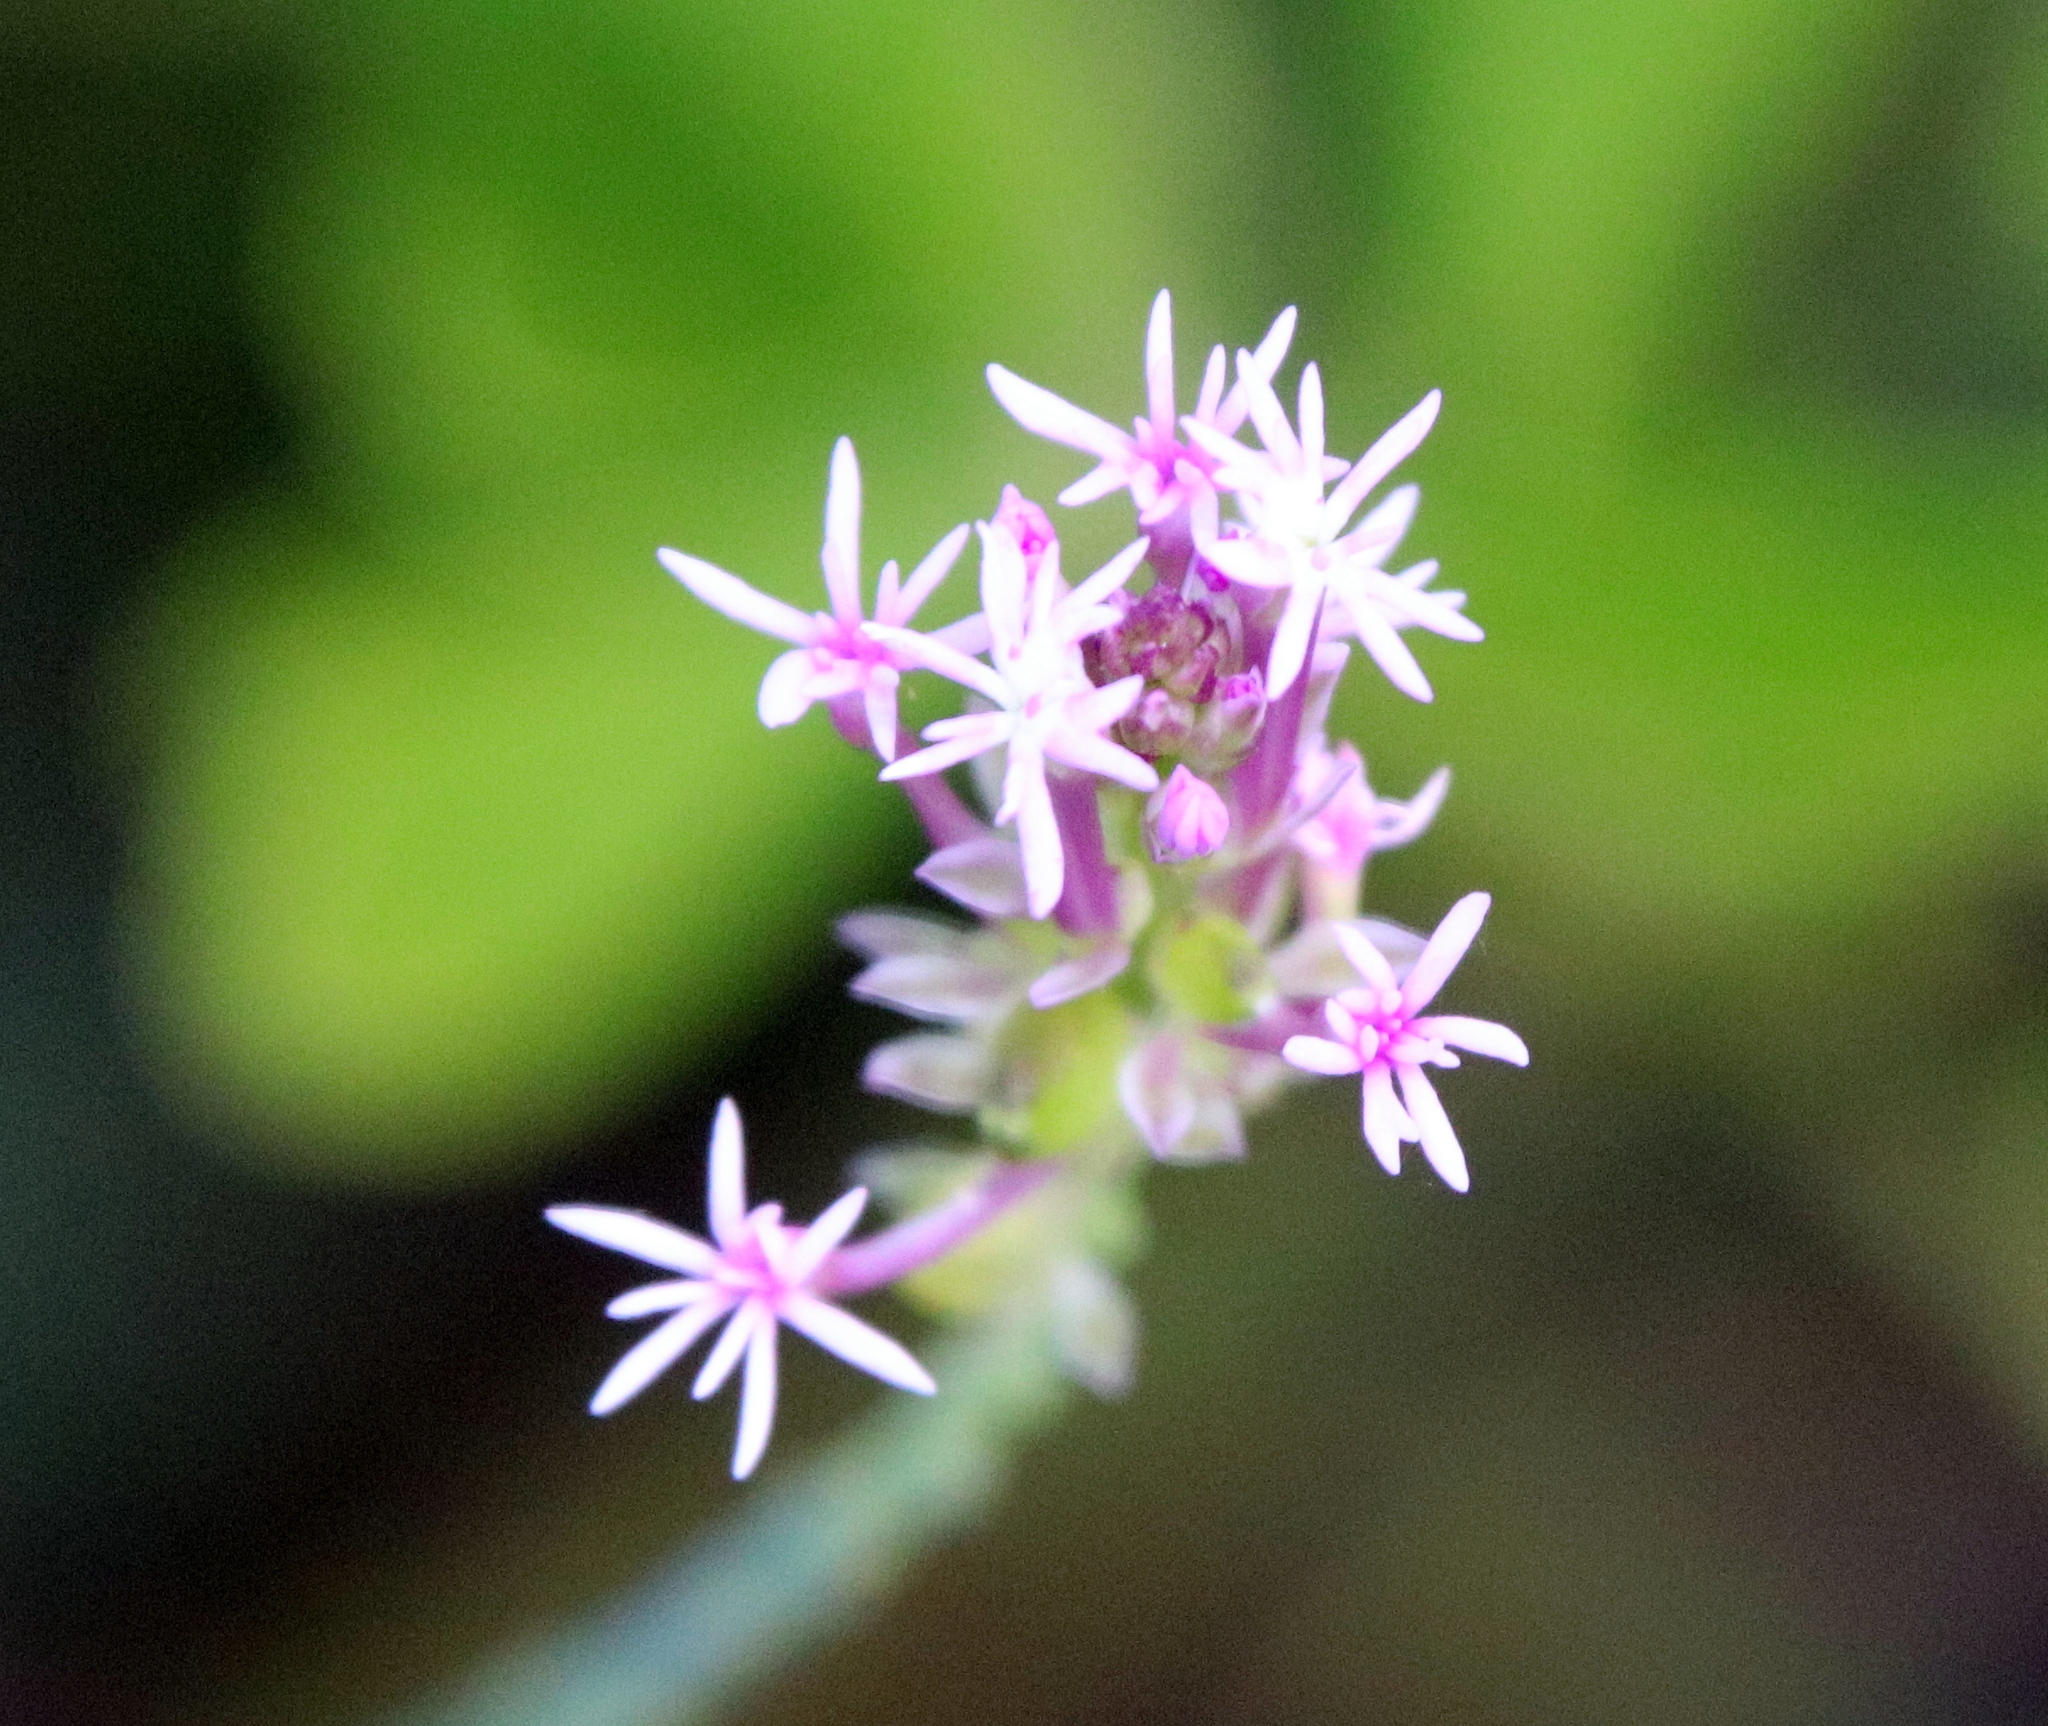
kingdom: Plantae
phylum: Tracheophyta
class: Magnoliopsida
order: Fabales
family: Polygalaceae
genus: Polygala
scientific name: Polygala incarnata
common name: Pink milkwort
